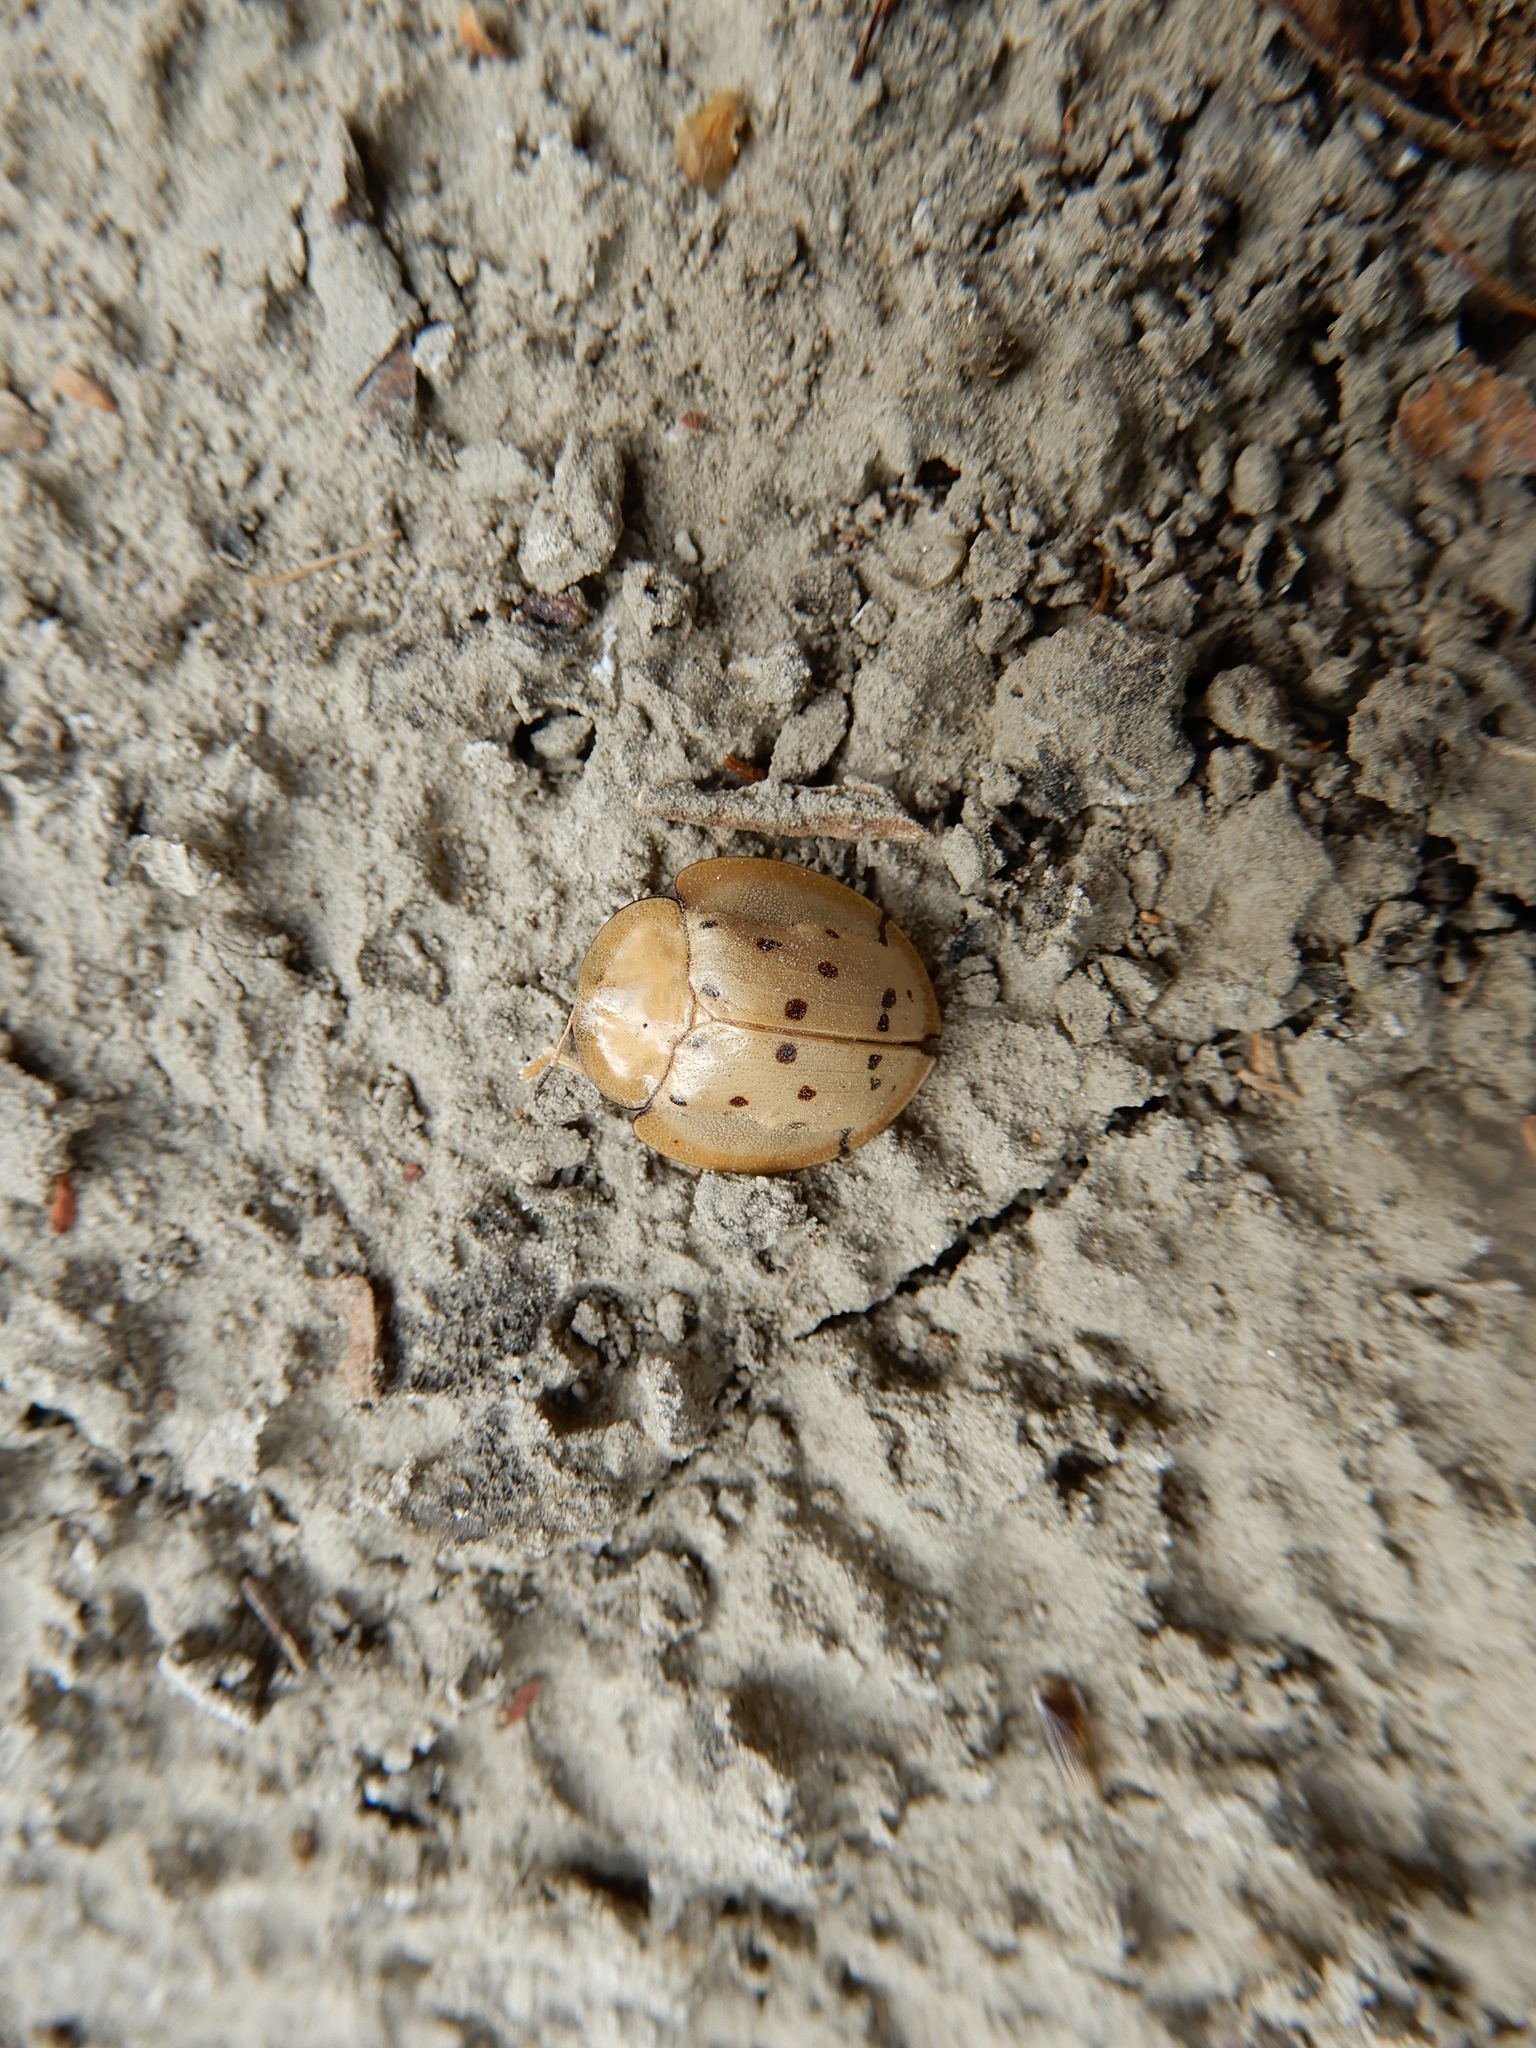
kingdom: Animalia
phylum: Arthropoda
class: Insecta
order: Coleoptera
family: Chrysomelidae
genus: Aspidimorpha
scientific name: Aspidimorpha miliaris
